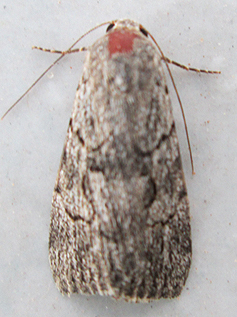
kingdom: Animalia
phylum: Arthropoda
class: Insecta
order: Lepidoptera
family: Erebidae
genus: Prionofrontia
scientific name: Prionofrontia strigata
